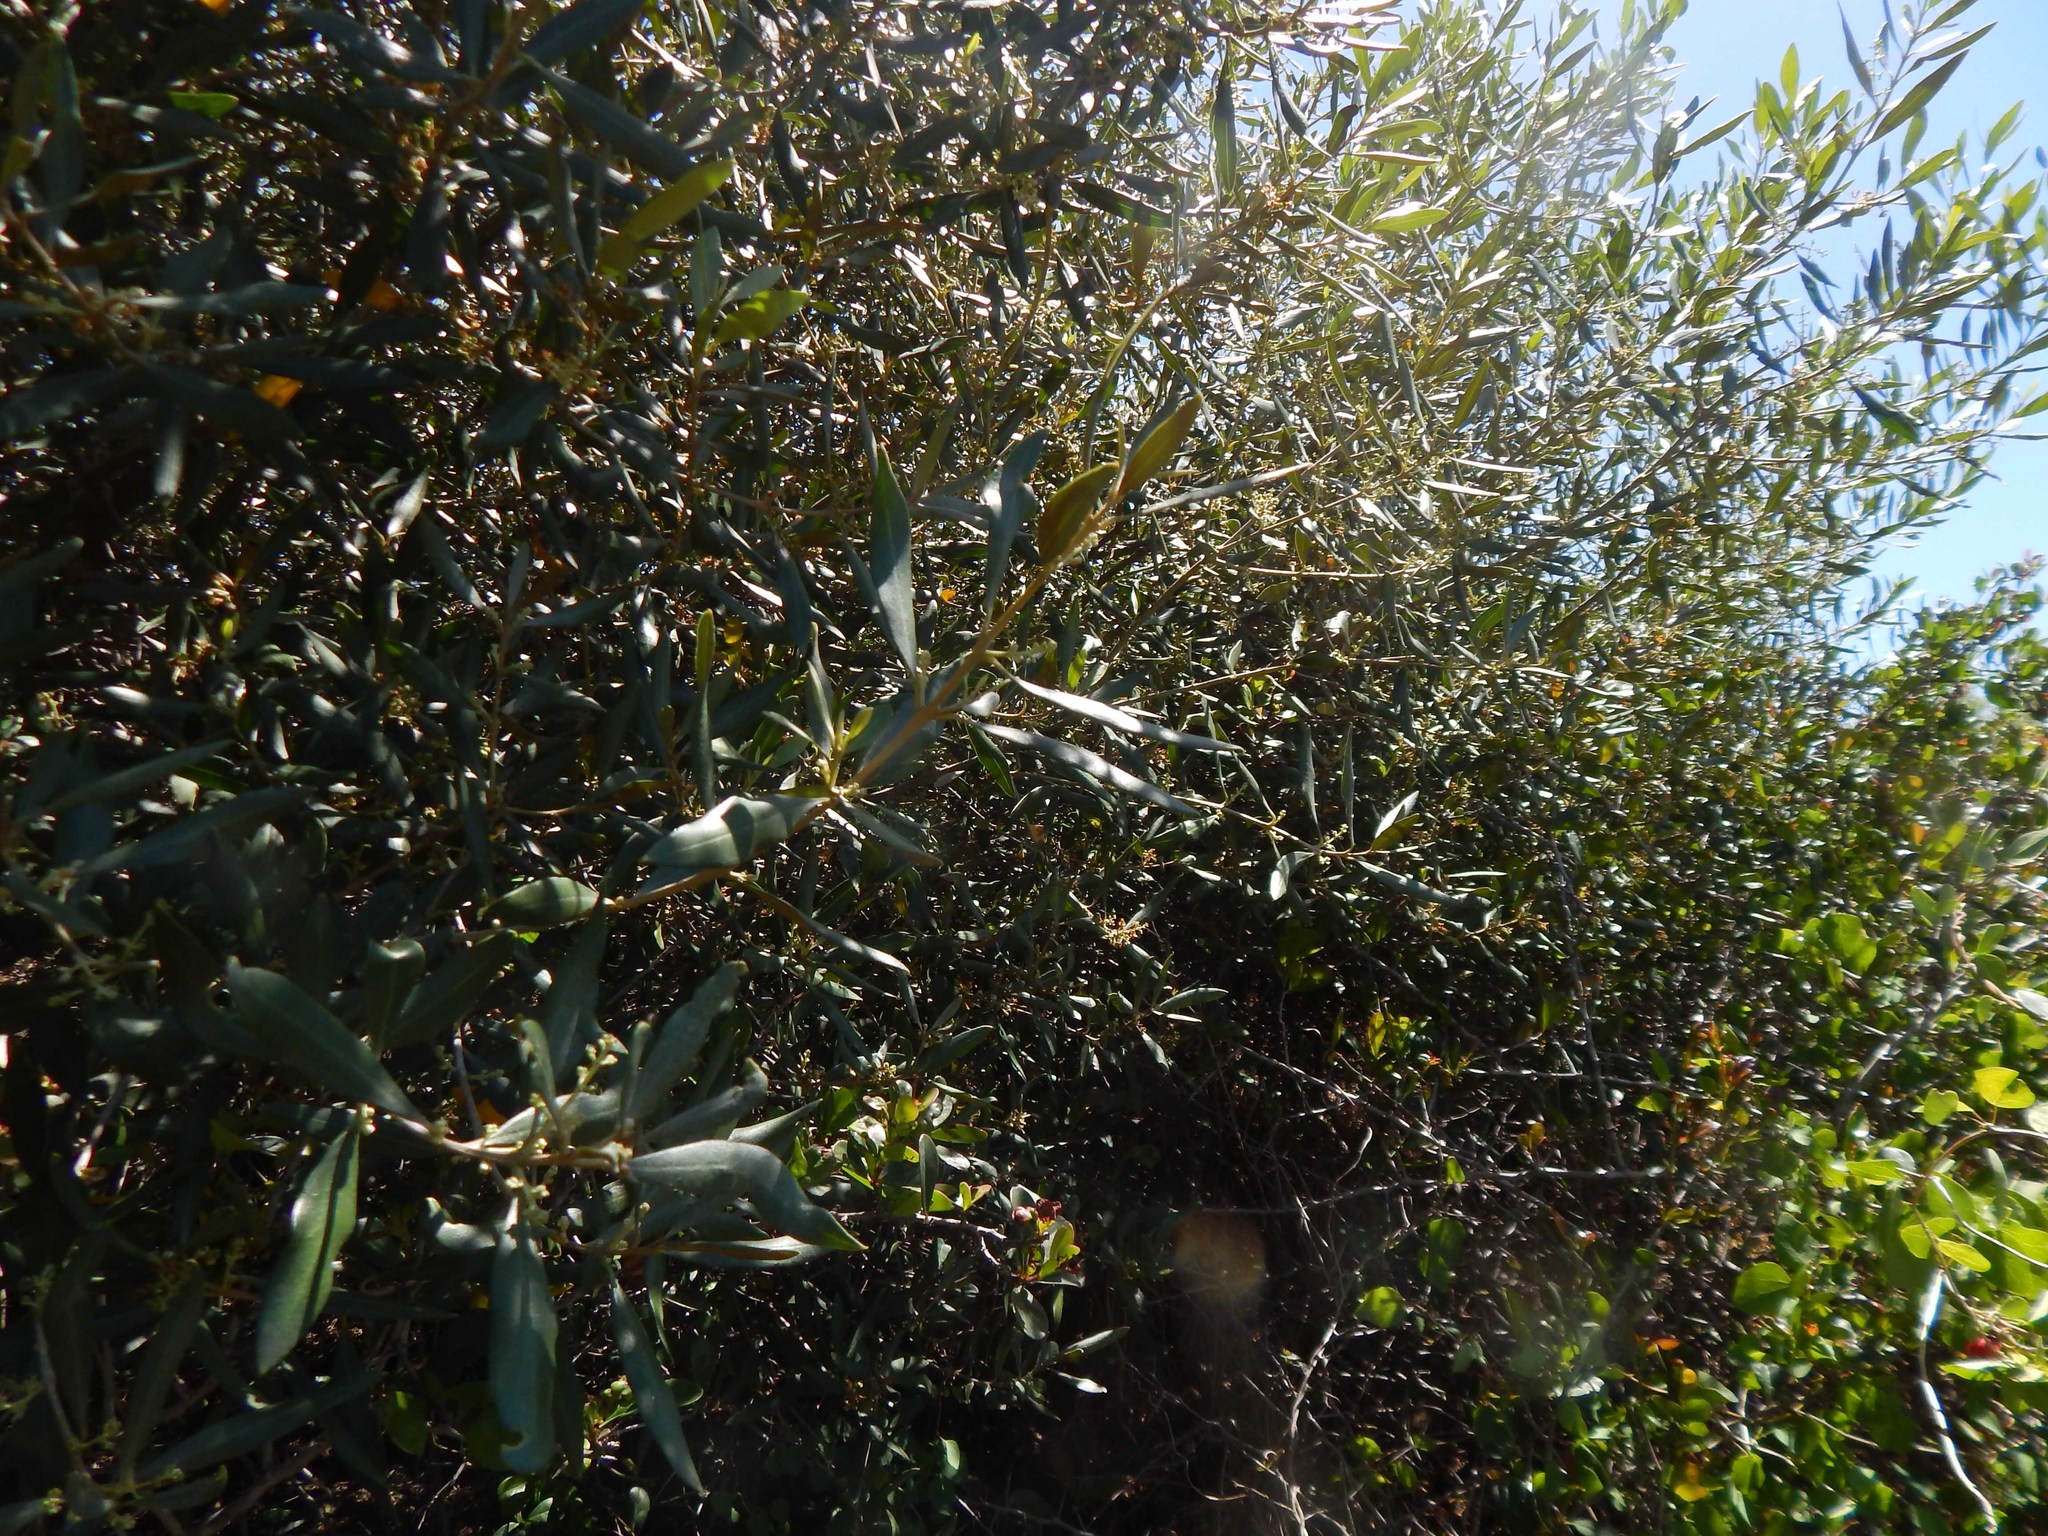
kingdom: Plantae
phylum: Tracheophyta
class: Magnoliopsida
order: Lamiales
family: Oleaceae
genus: Olea
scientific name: Olea europaea
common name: Olive
